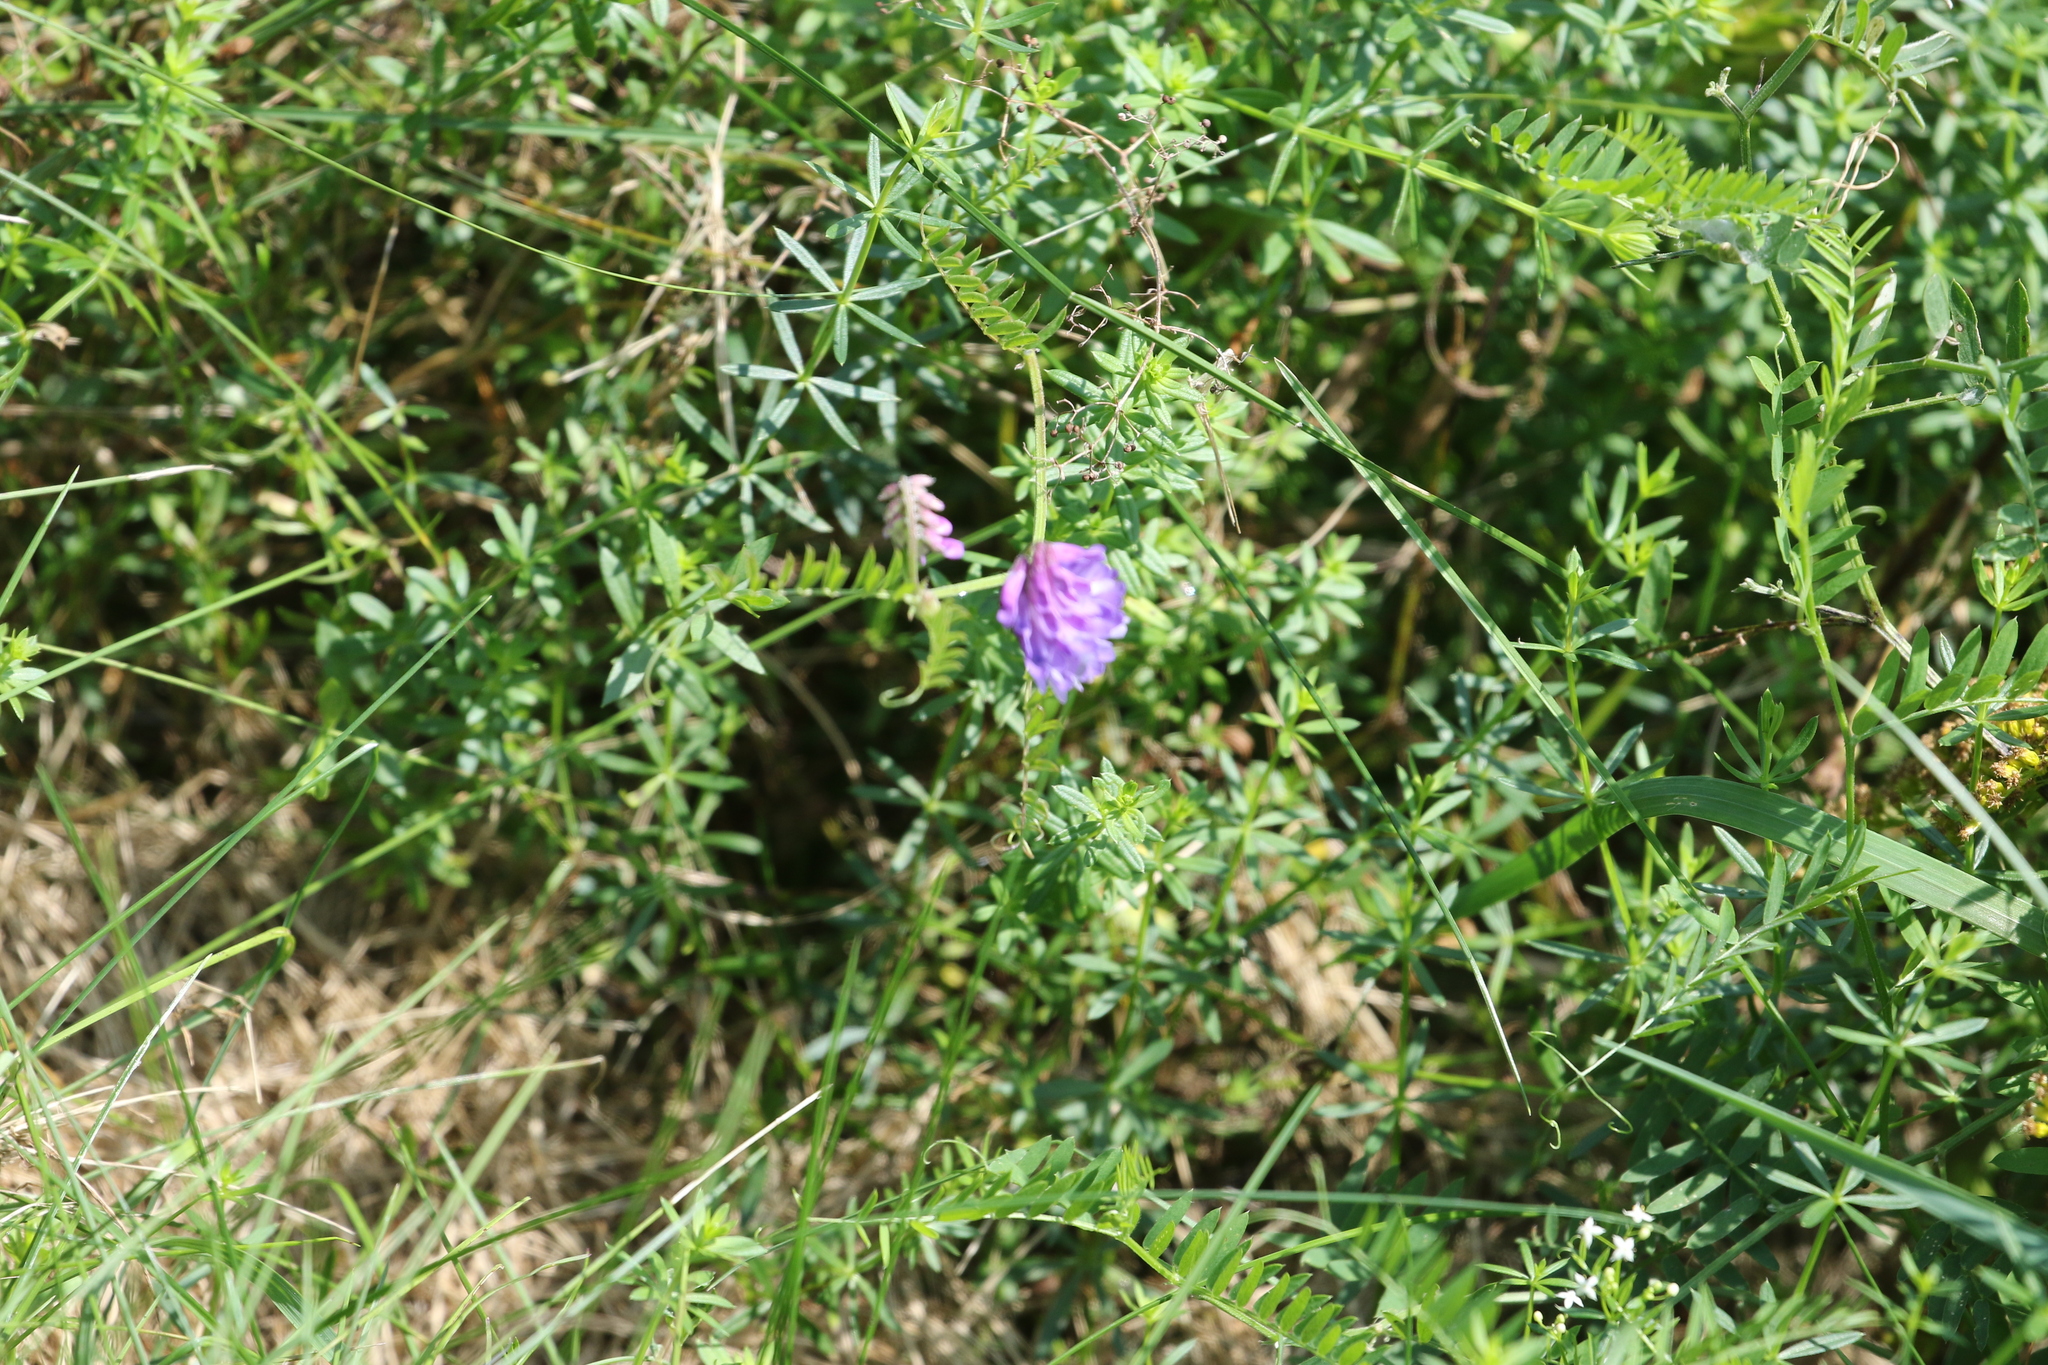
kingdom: Plantae
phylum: Tracheophyta
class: Magnoliopsida
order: Fabales
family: Fabaceae
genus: Vicia
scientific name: Vicia cracca
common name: Bird vetch
